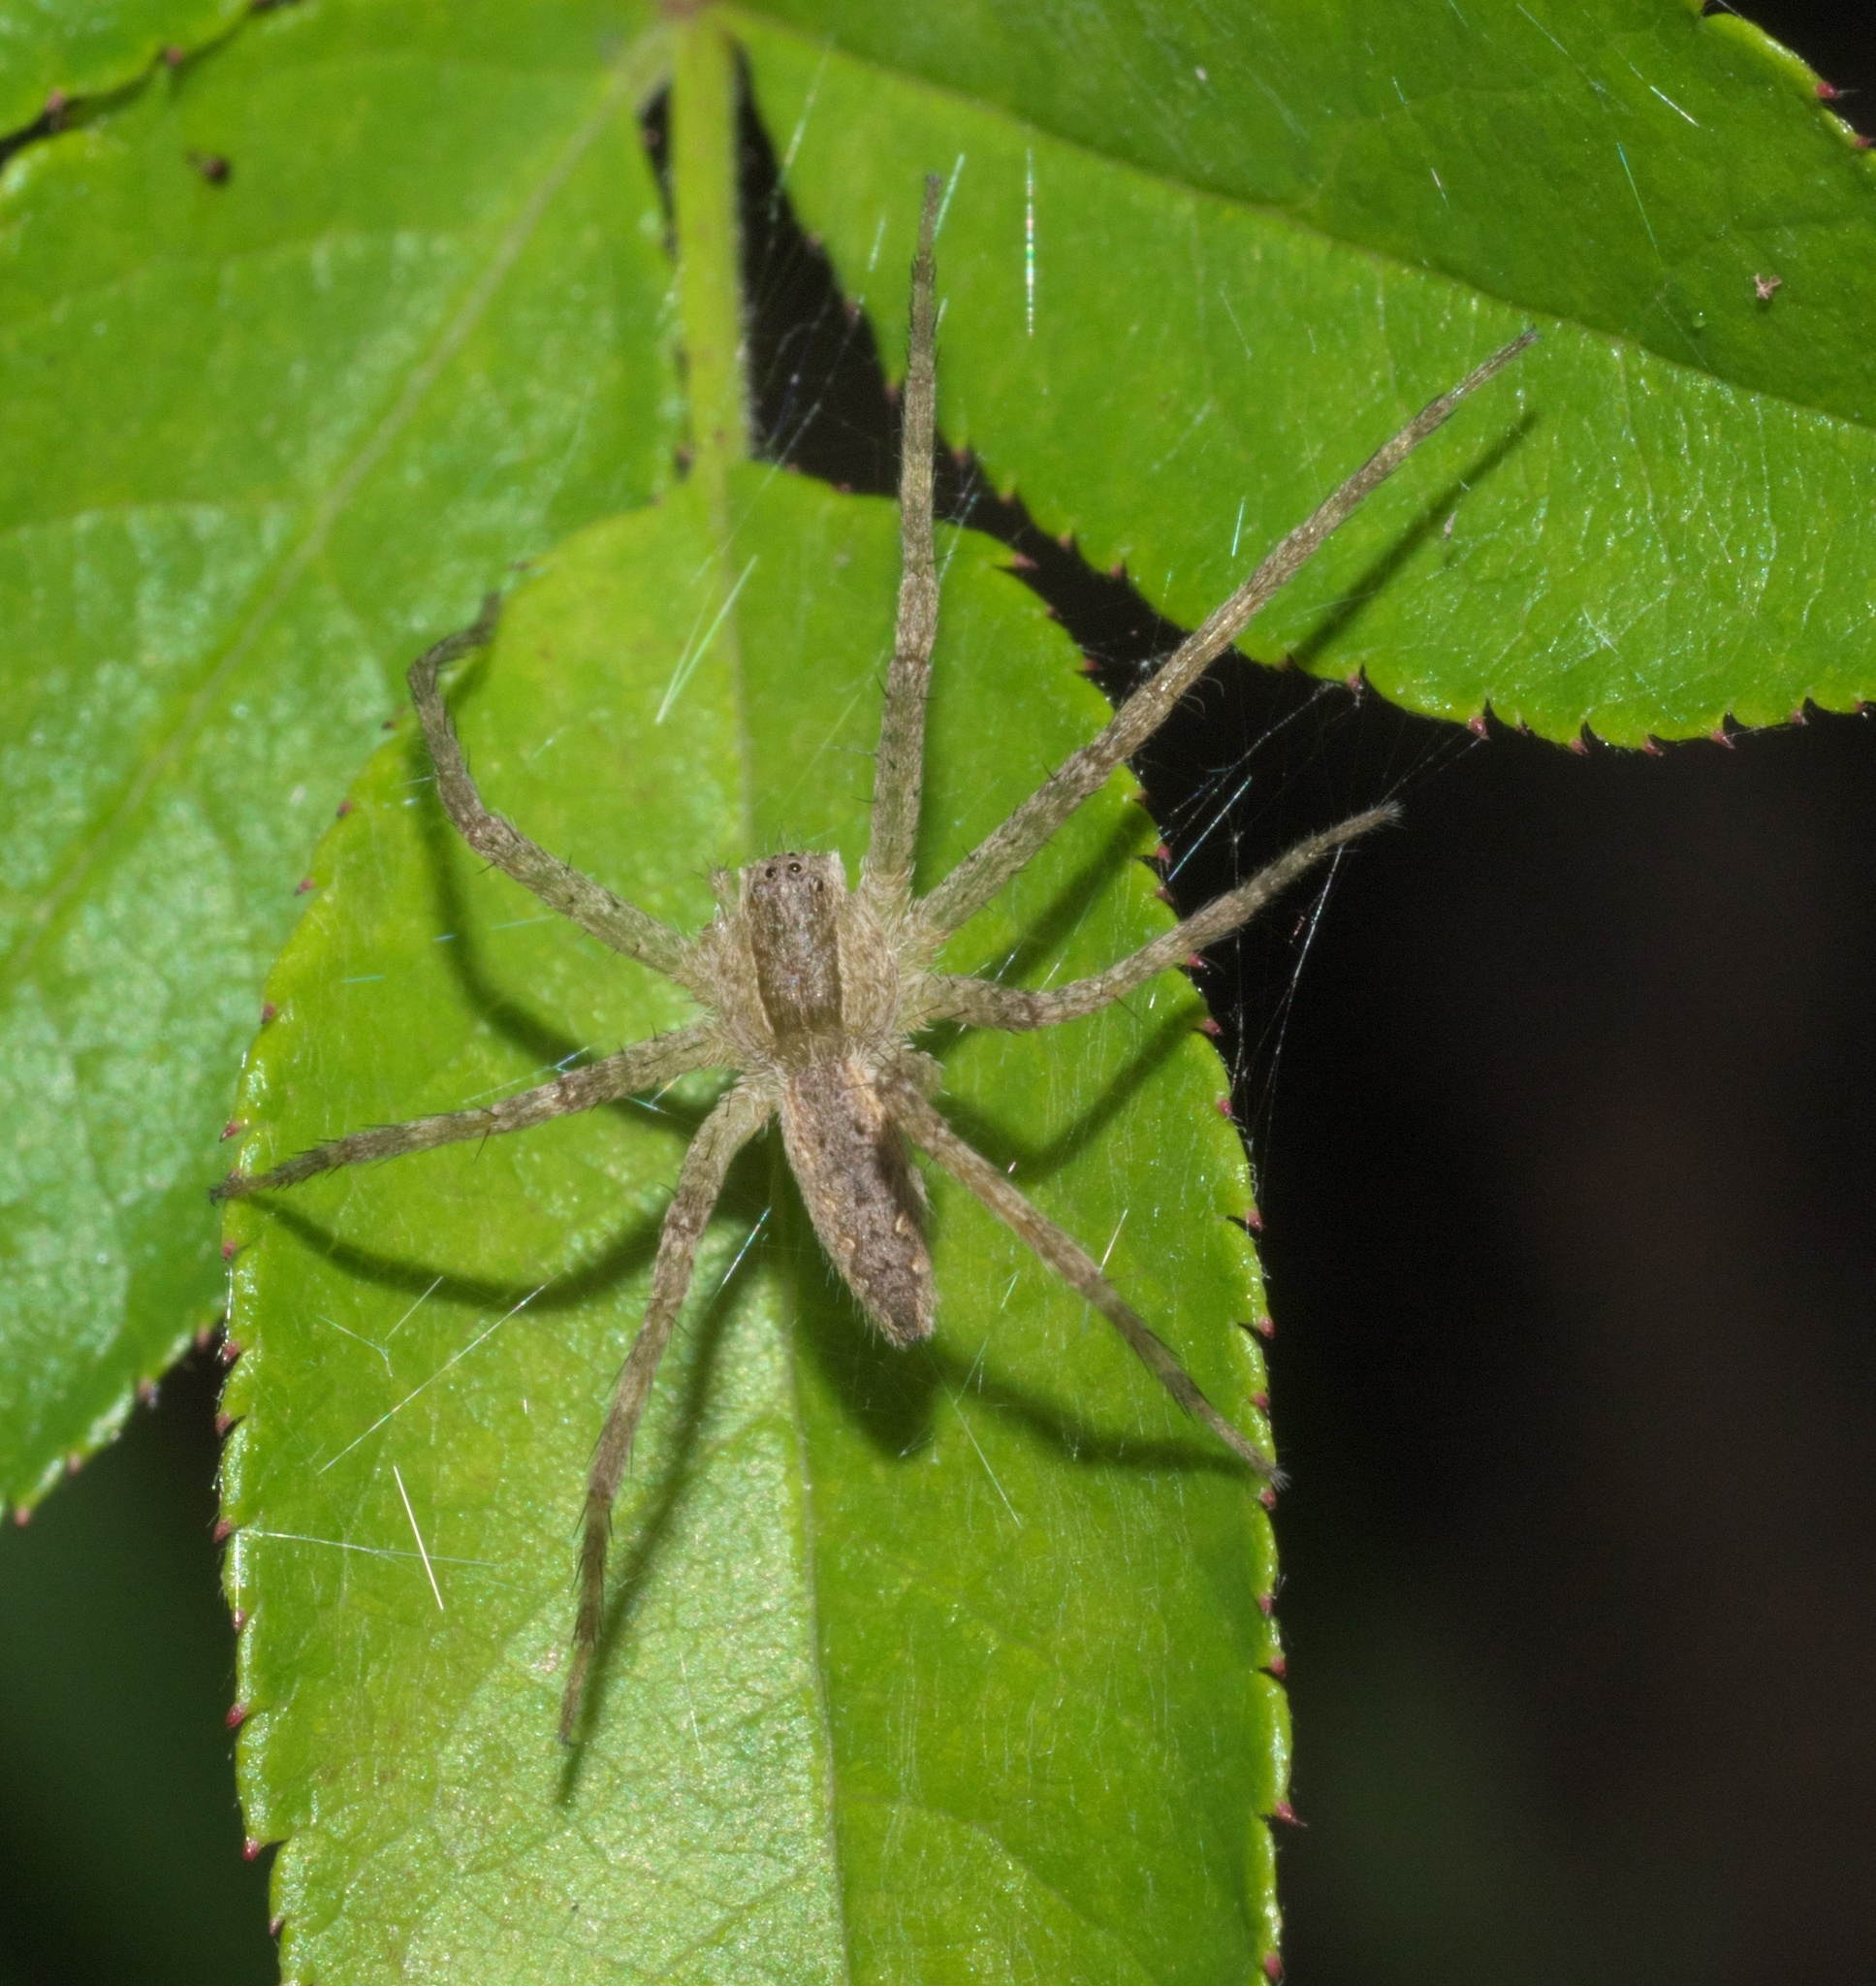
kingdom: Animalia
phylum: Arthropoda
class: Arachnida
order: Araneae
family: Pisauridae
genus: Pisaurina
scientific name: Pisaurina mira
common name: American nursery web spider
